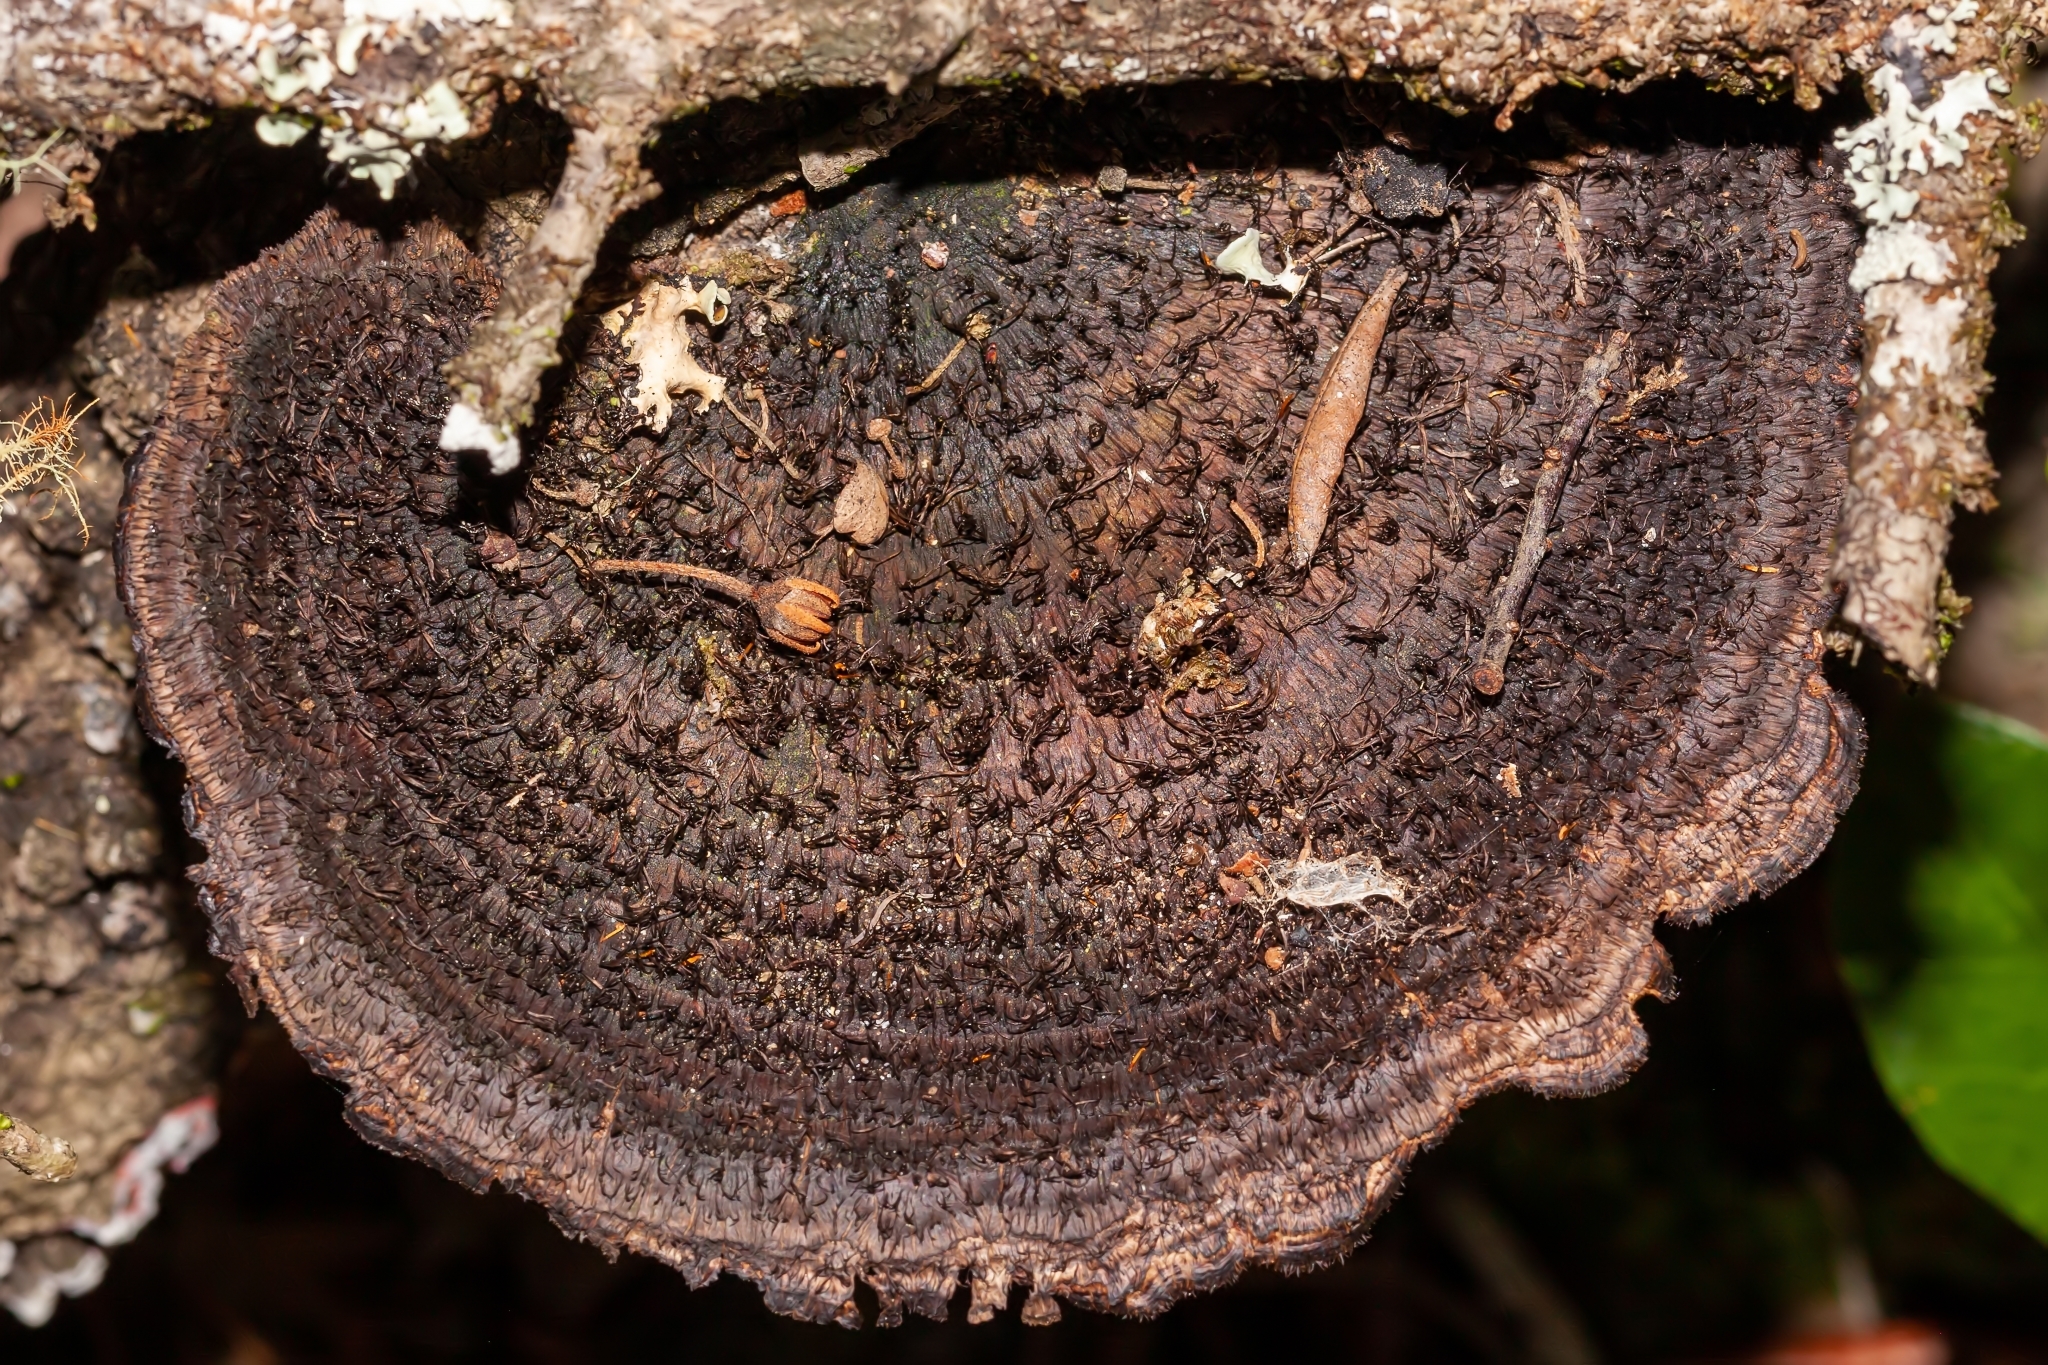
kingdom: Fungi
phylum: Basidiomycota
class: Agaricomycetes
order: Polyporales
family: Cerrenaceae
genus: Cerrena
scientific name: Cerrena hydnoides
